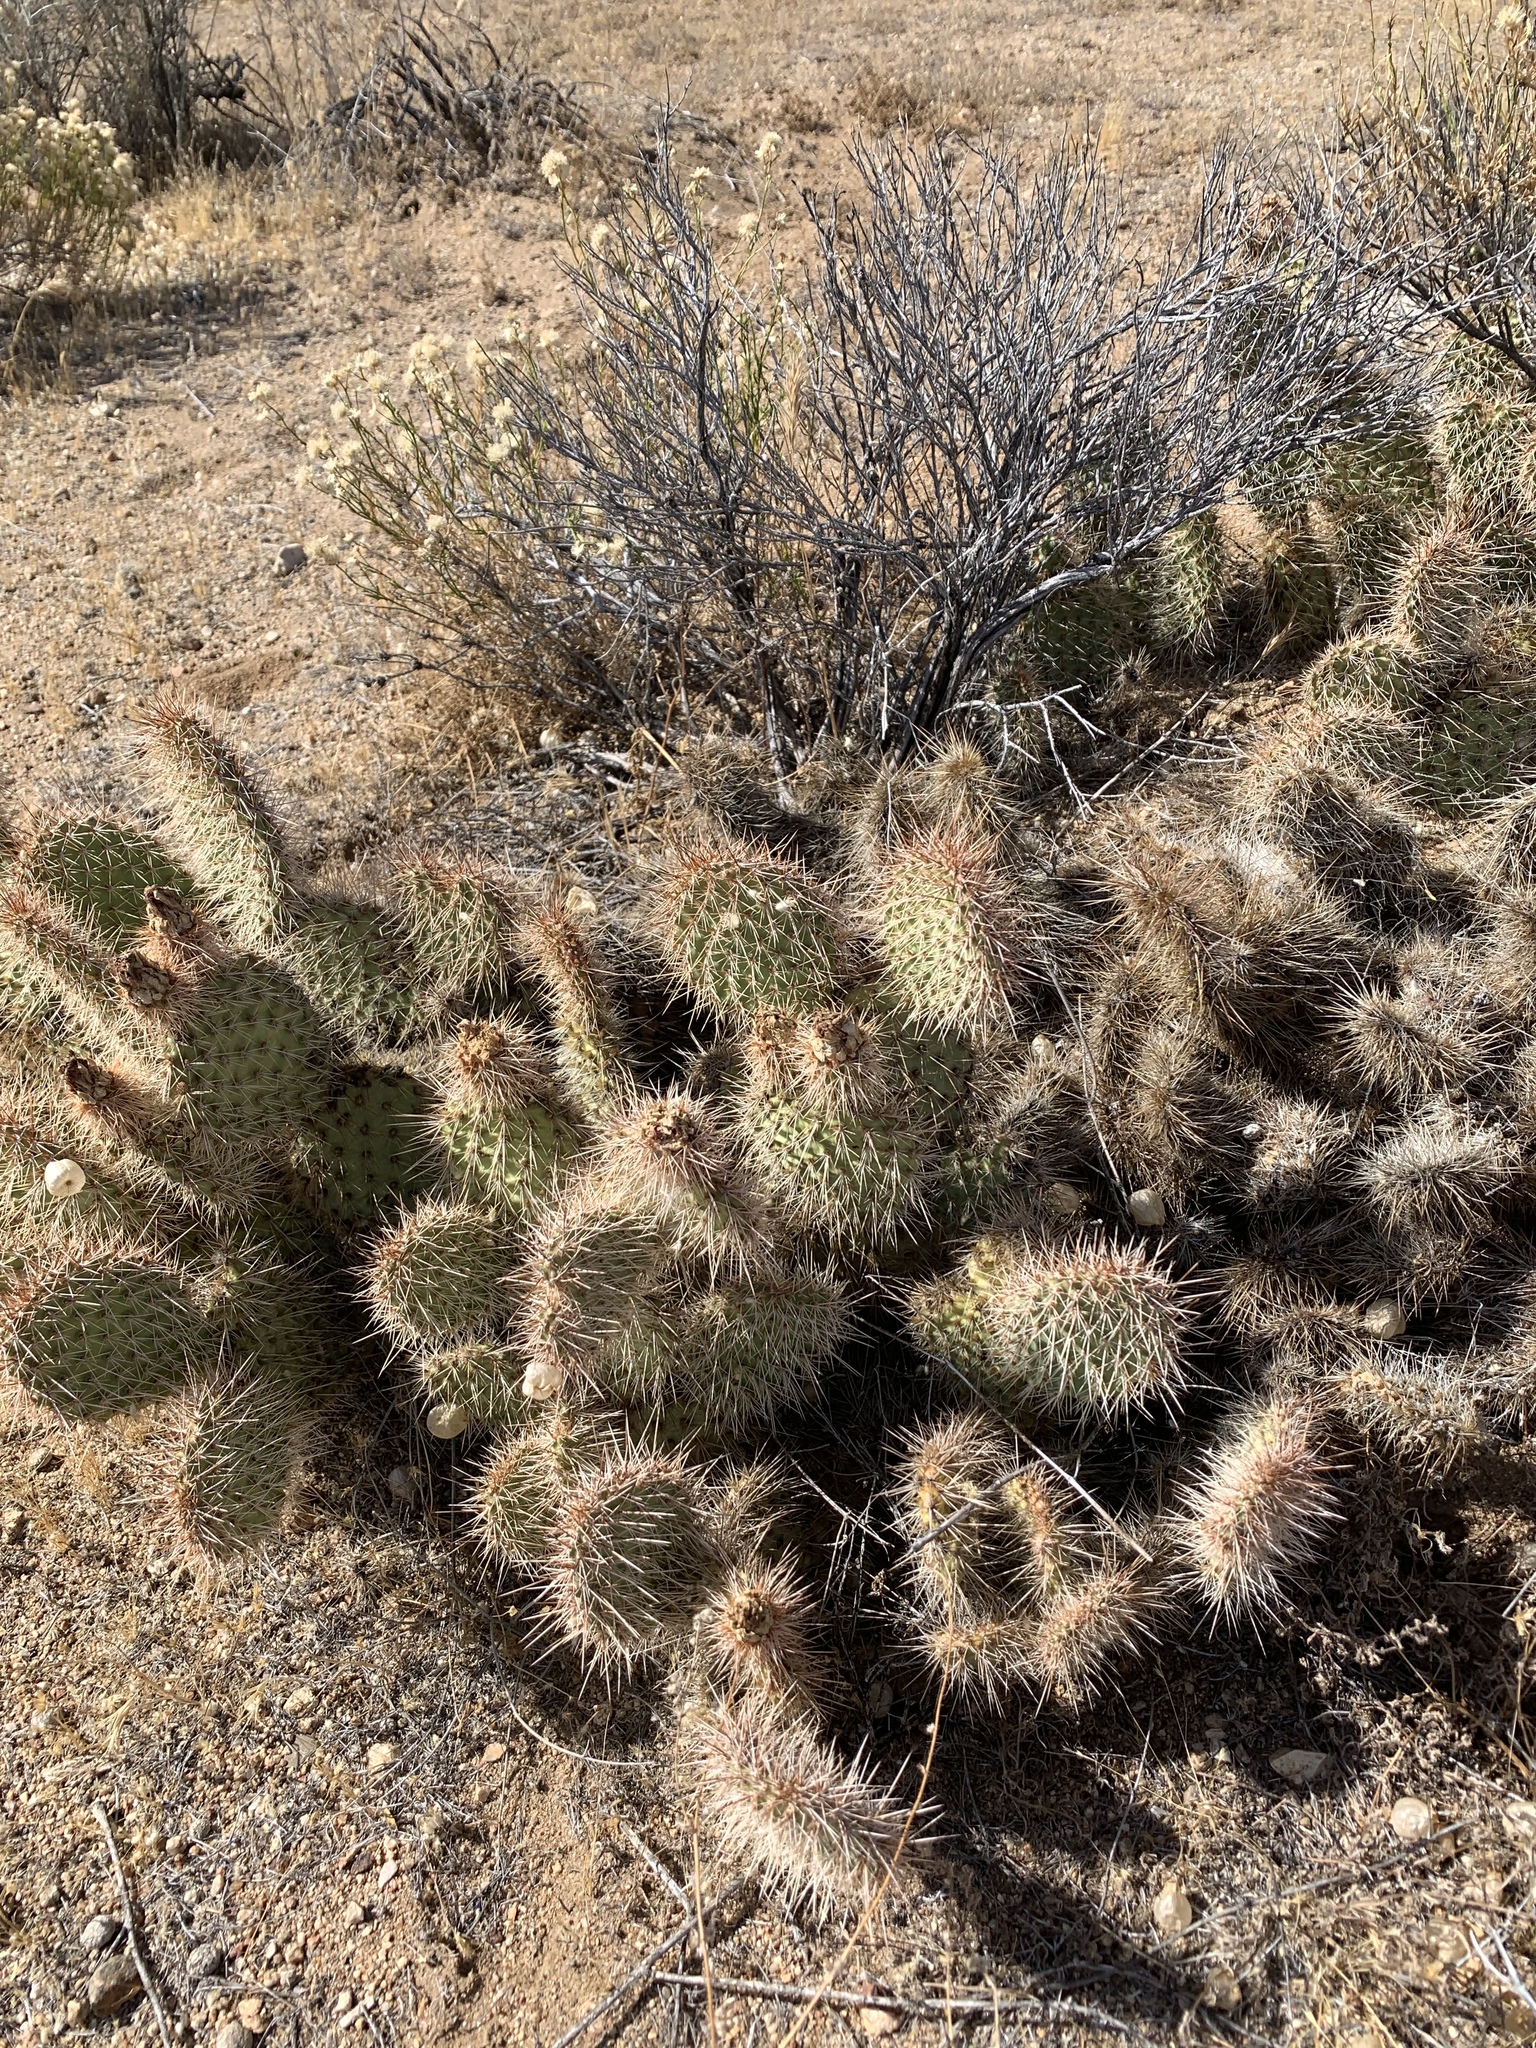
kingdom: Plantae
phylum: Tracheophyta
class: Magnoliopsida
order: Caryophyllales
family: Cactaceae
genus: Opuntia
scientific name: Opuntia polyacantha
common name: Plains prickly-pear
